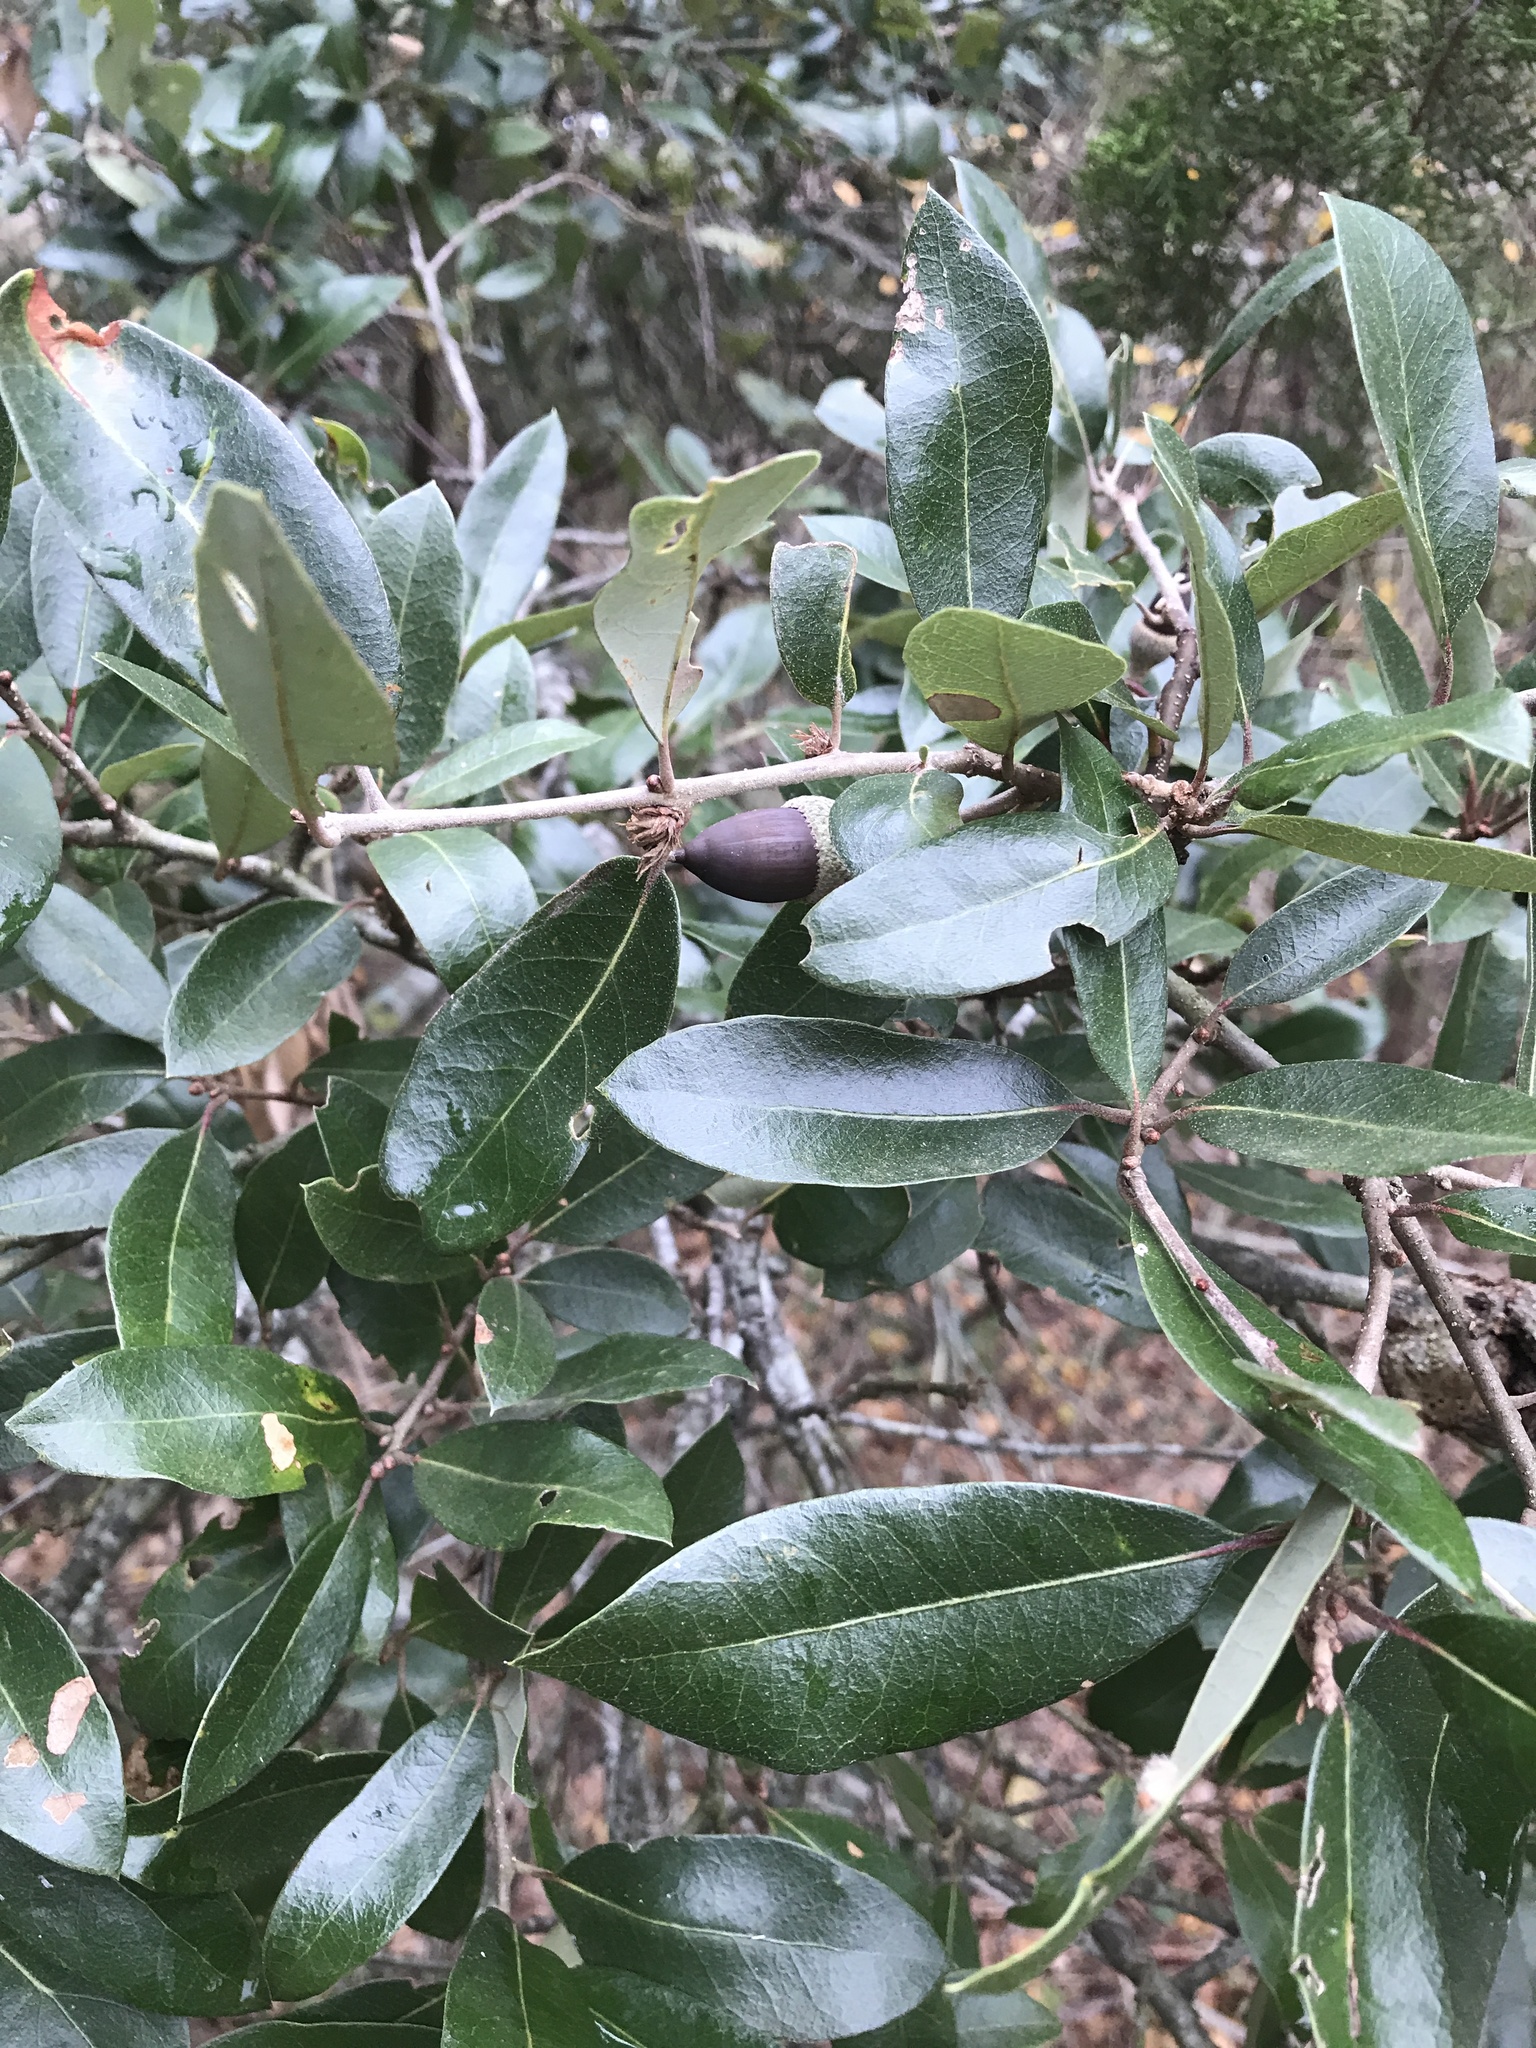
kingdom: Plantae
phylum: Tracheophyta
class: Magnoliopsida
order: Fagales
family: Fagaceae
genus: Quercus
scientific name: Quercus fusiformis
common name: Texas live oak
